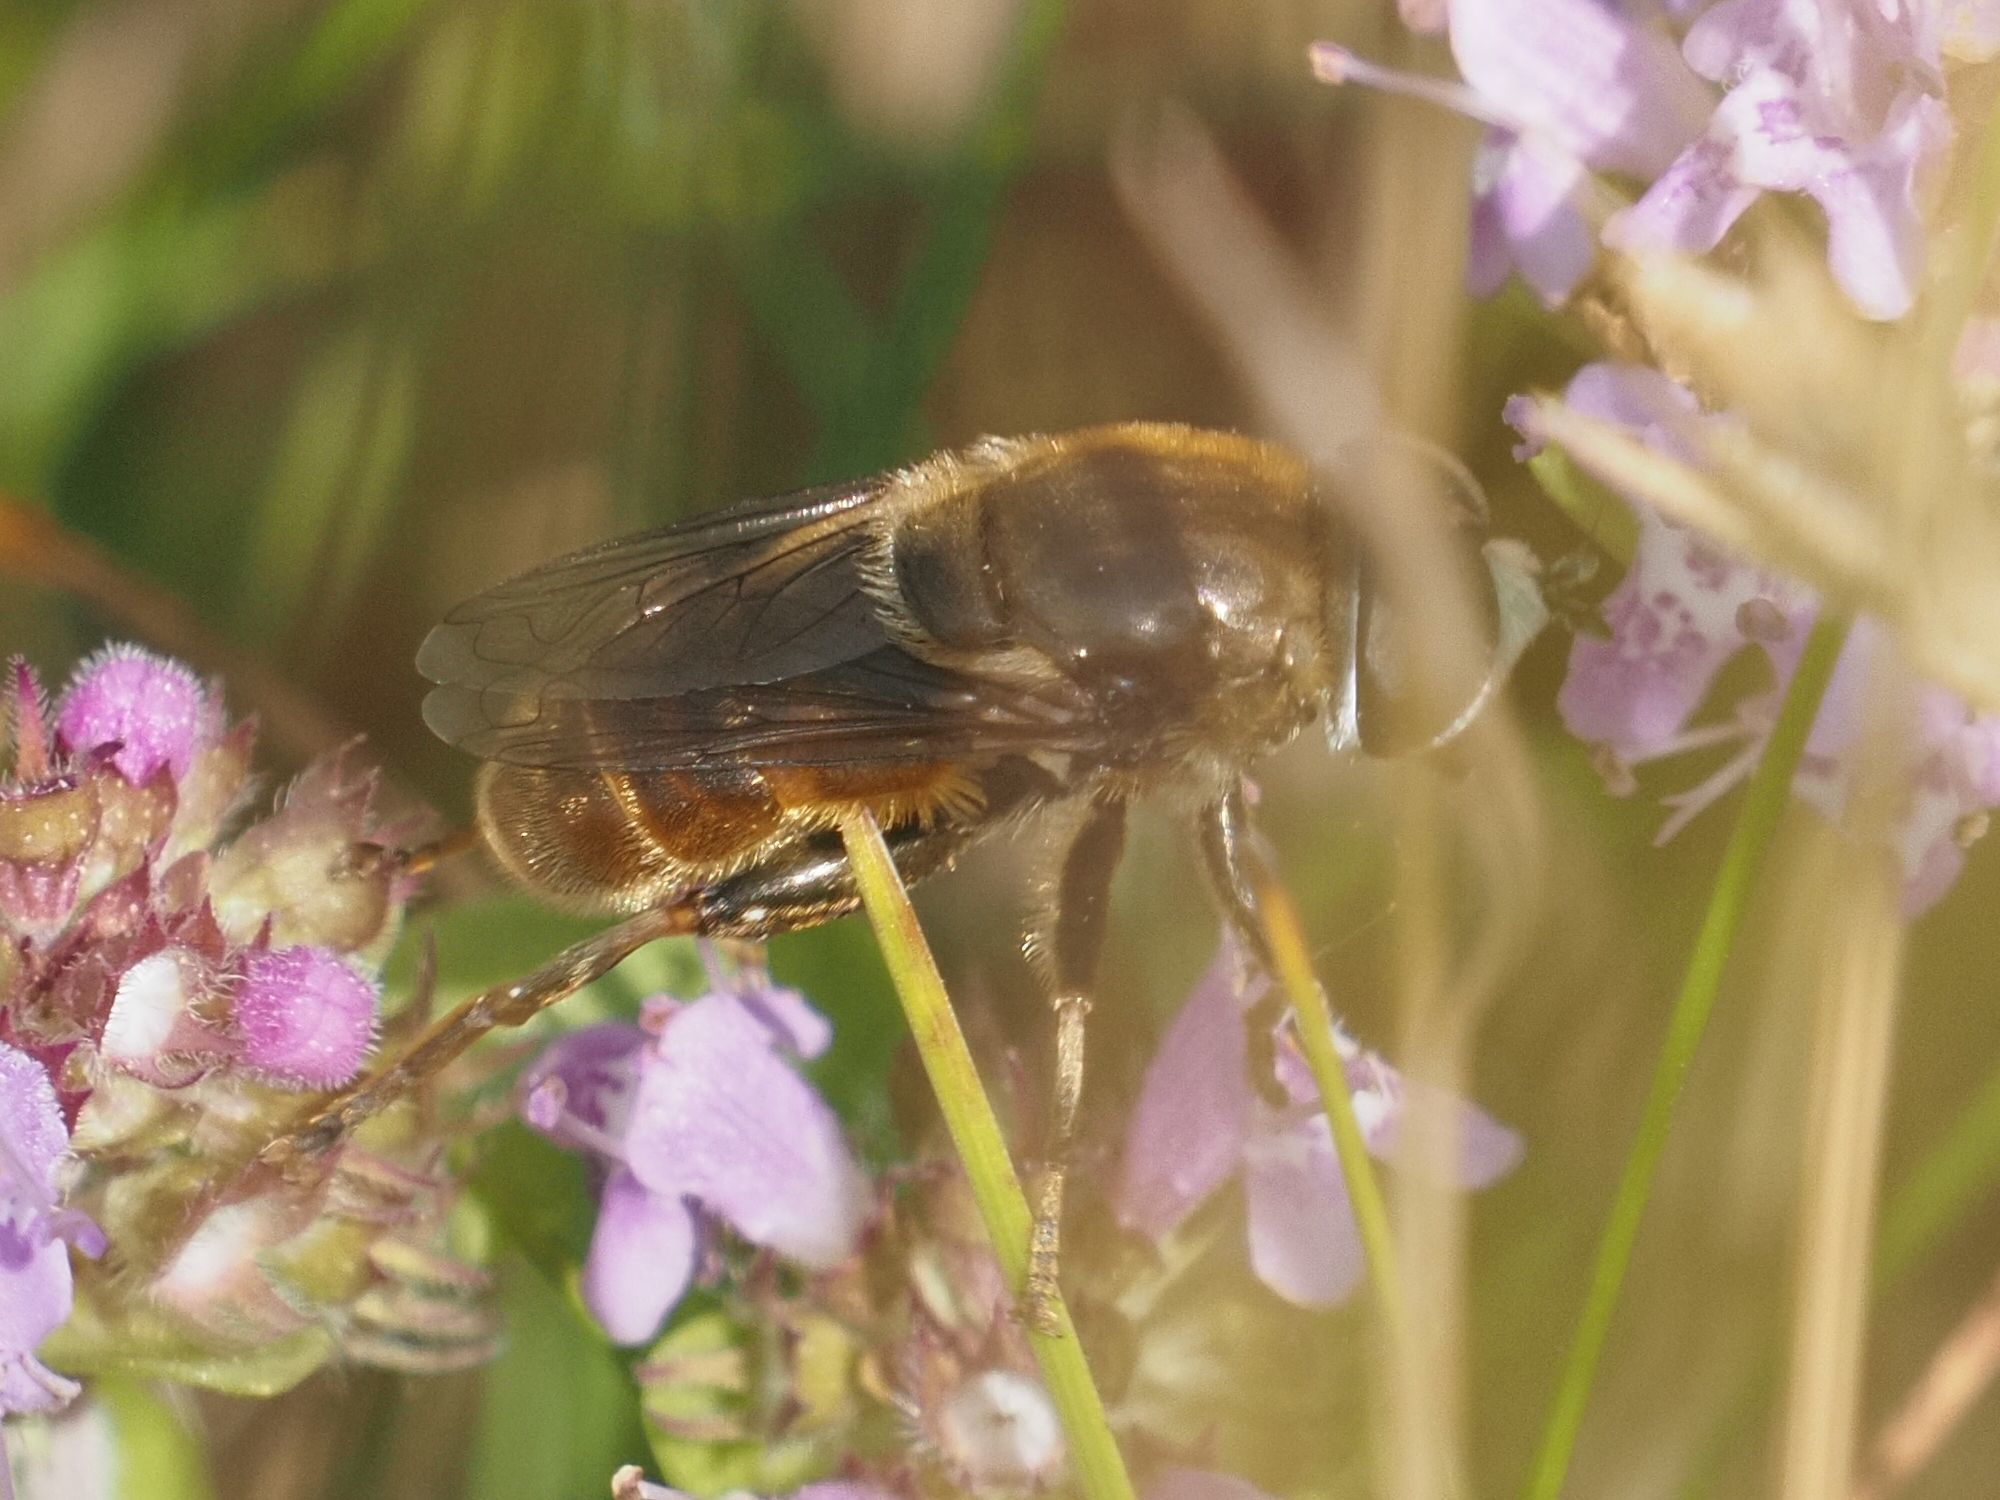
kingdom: Animalia
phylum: Arthropoda
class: Insecta
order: Diptera
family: Syrphidae
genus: Merodon
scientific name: Merodon albifrons
